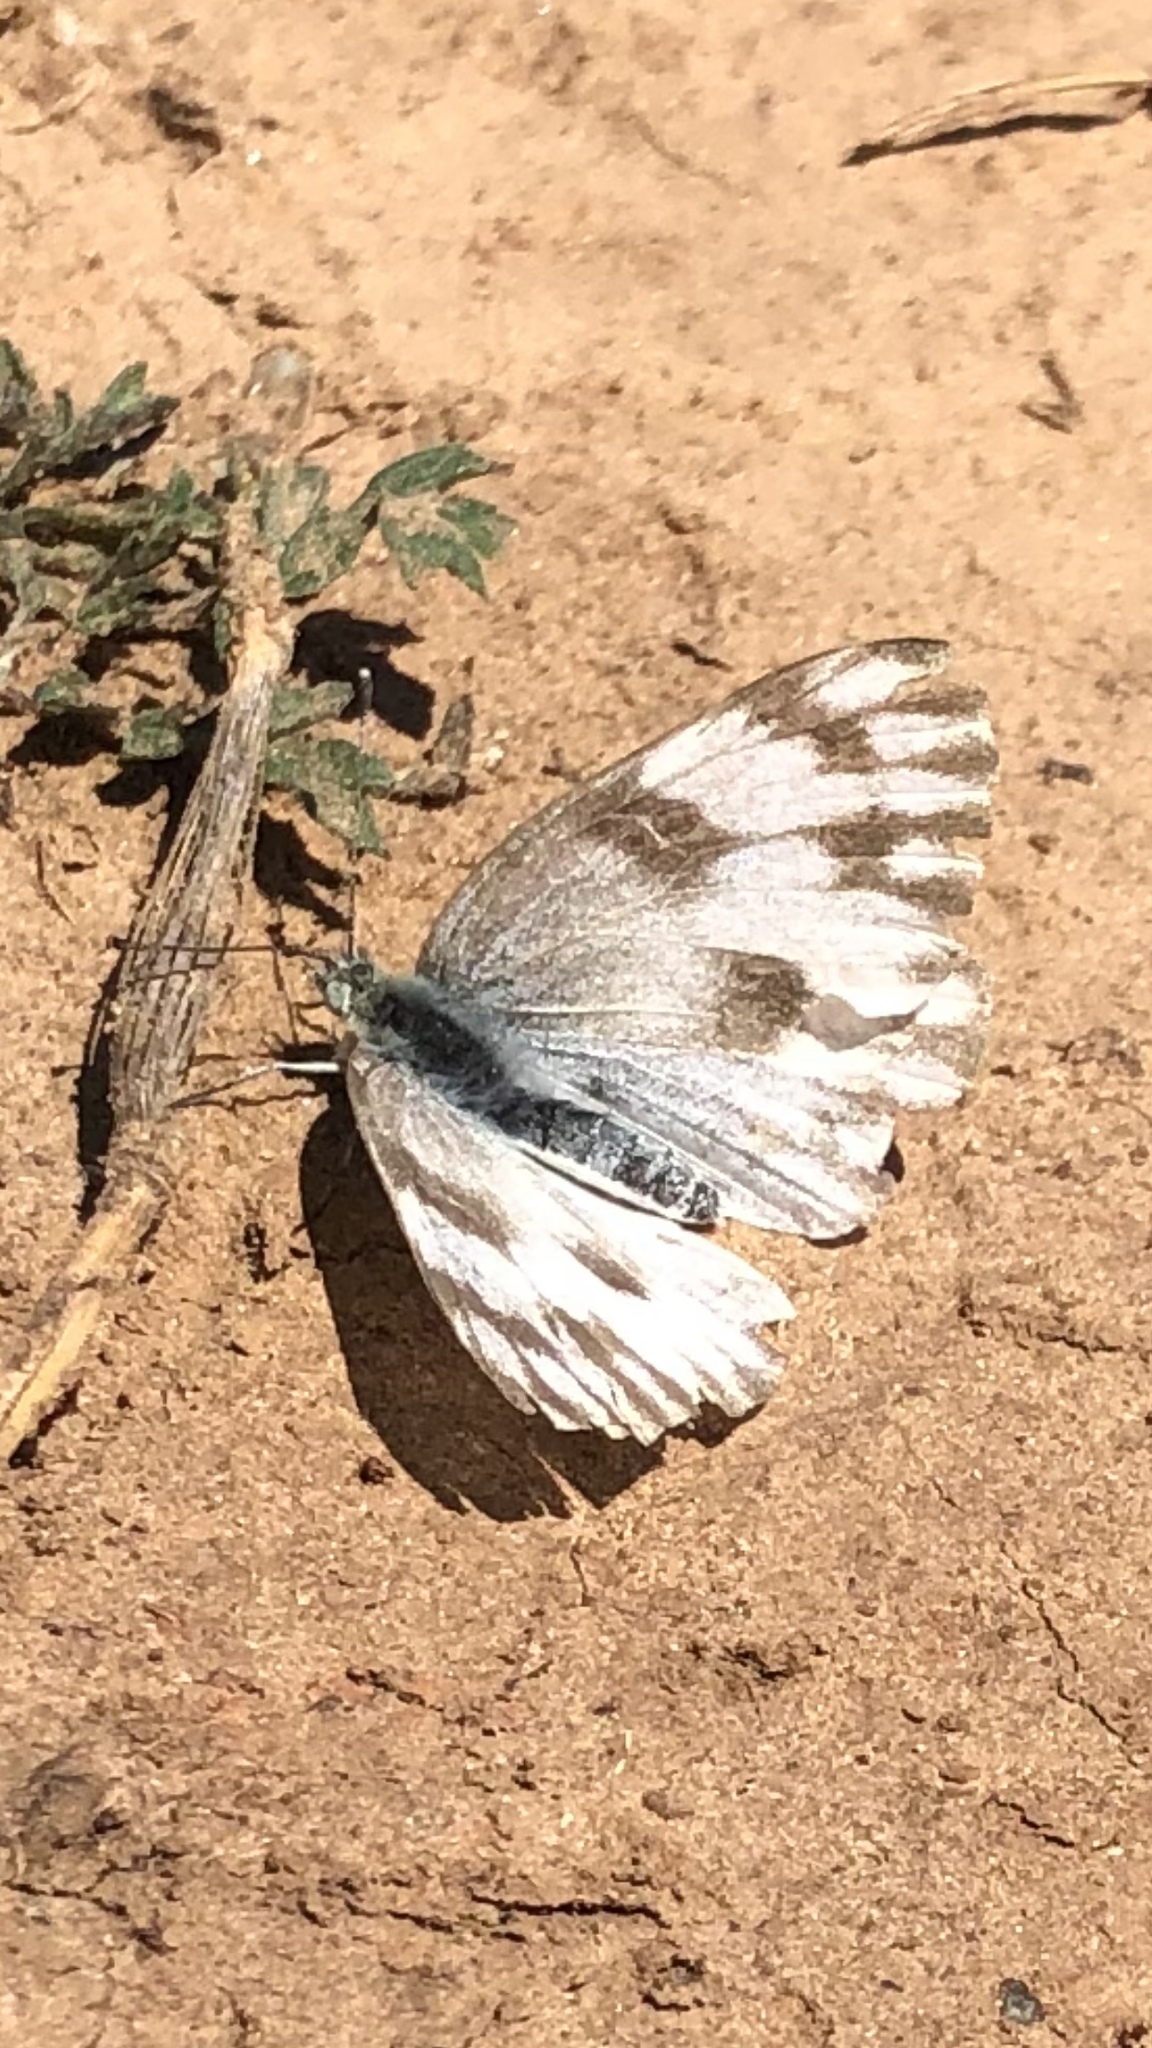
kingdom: Animalia
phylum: Arthropoda
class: Insecta
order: Lepidoptera
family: Pieridae
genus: Pontia
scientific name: Pontia protodice
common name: Checkered white
